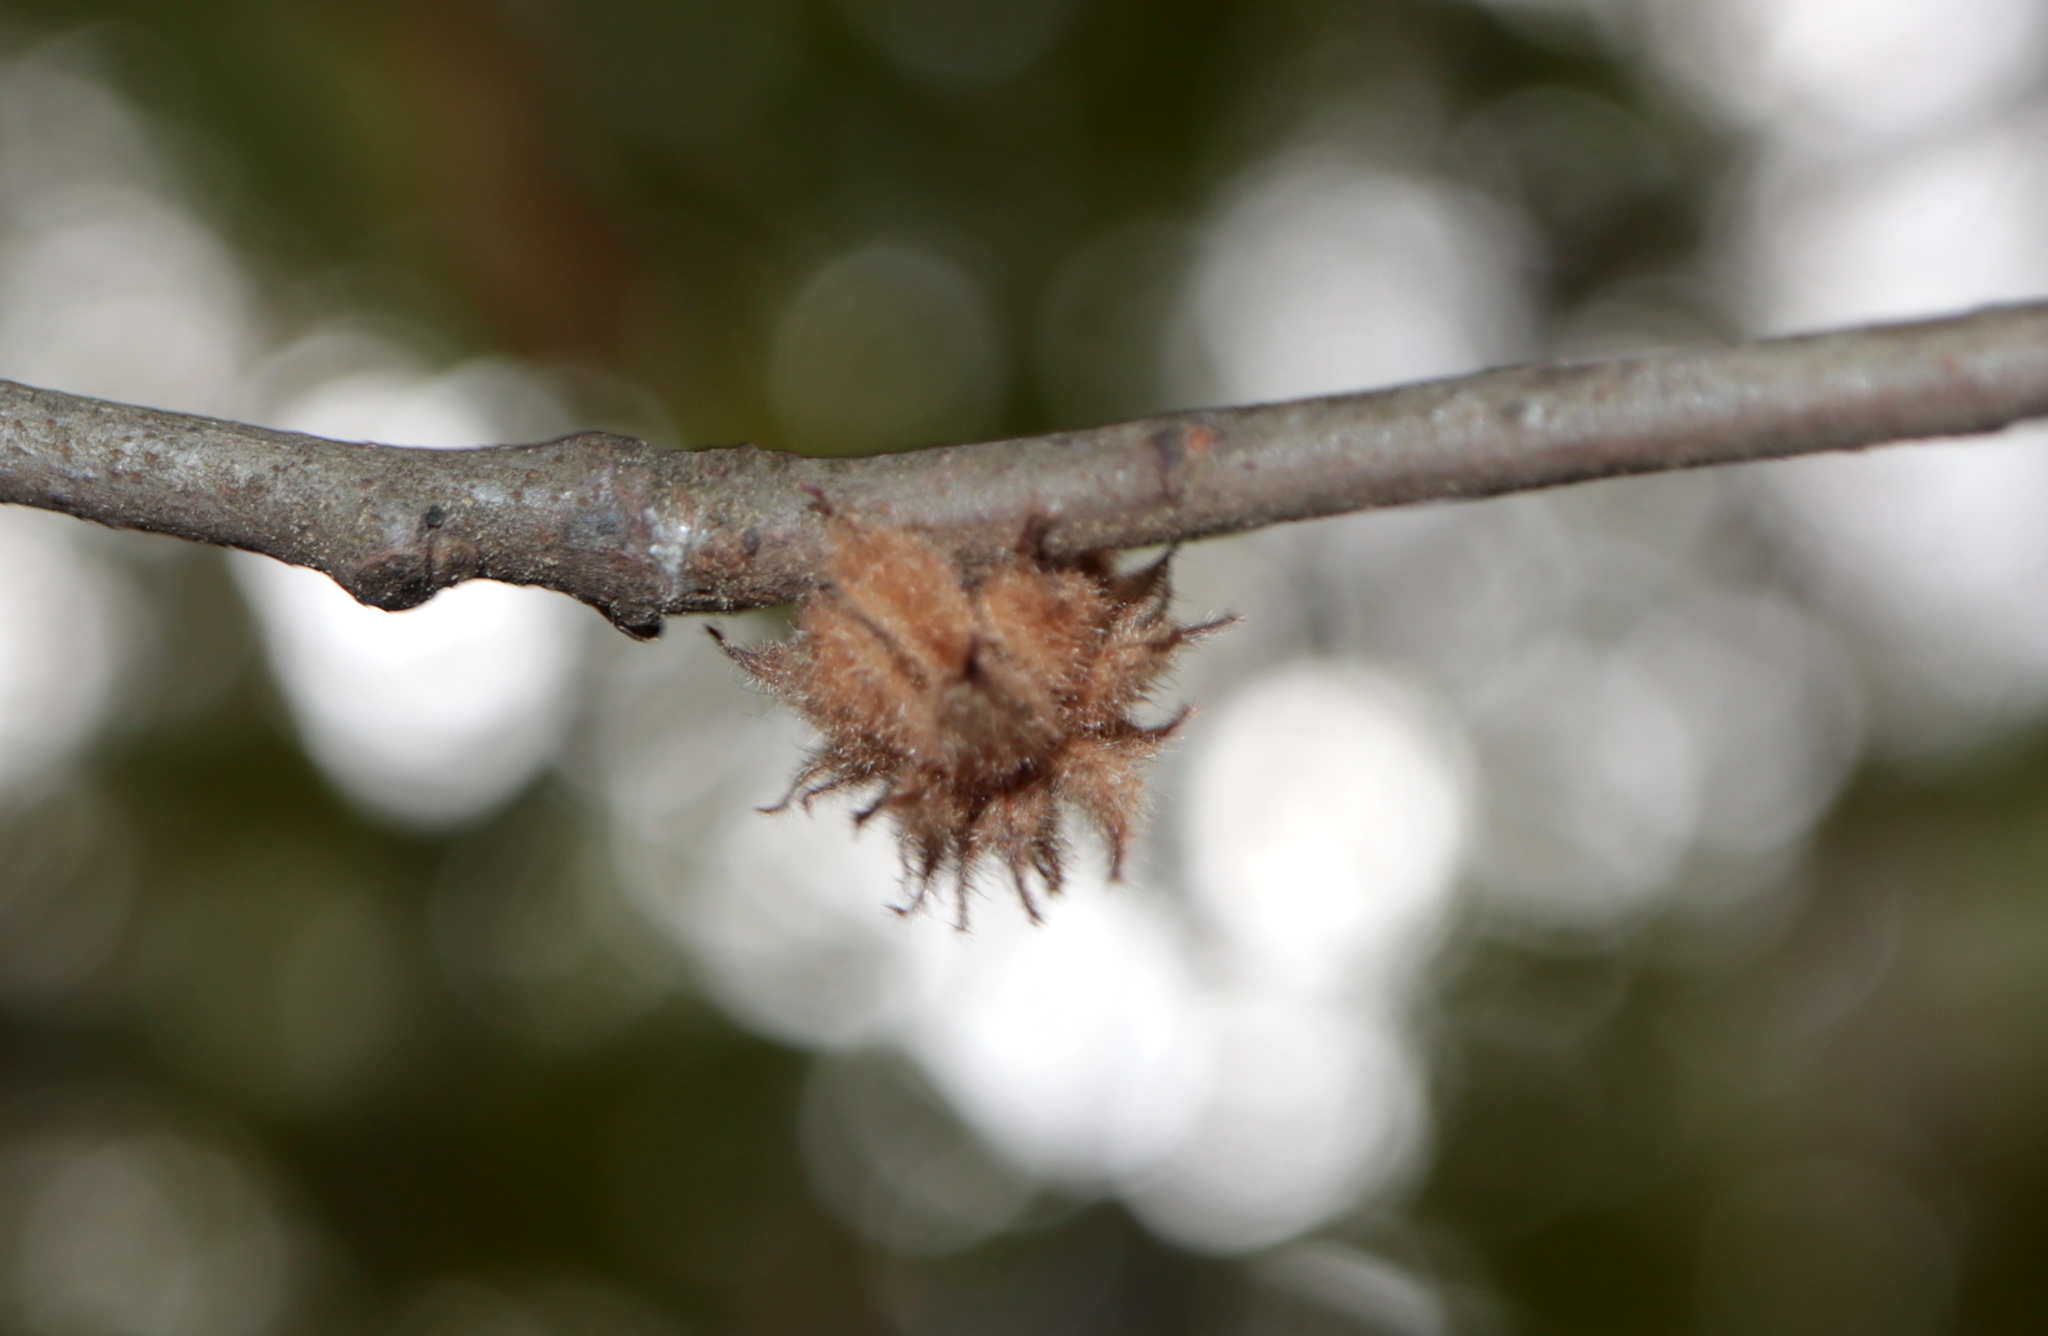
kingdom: Animalia
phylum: Arthropoda
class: Insecta
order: Hymenoptera
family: Cynipidae
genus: Dryocosmus
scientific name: Dryocosmus
